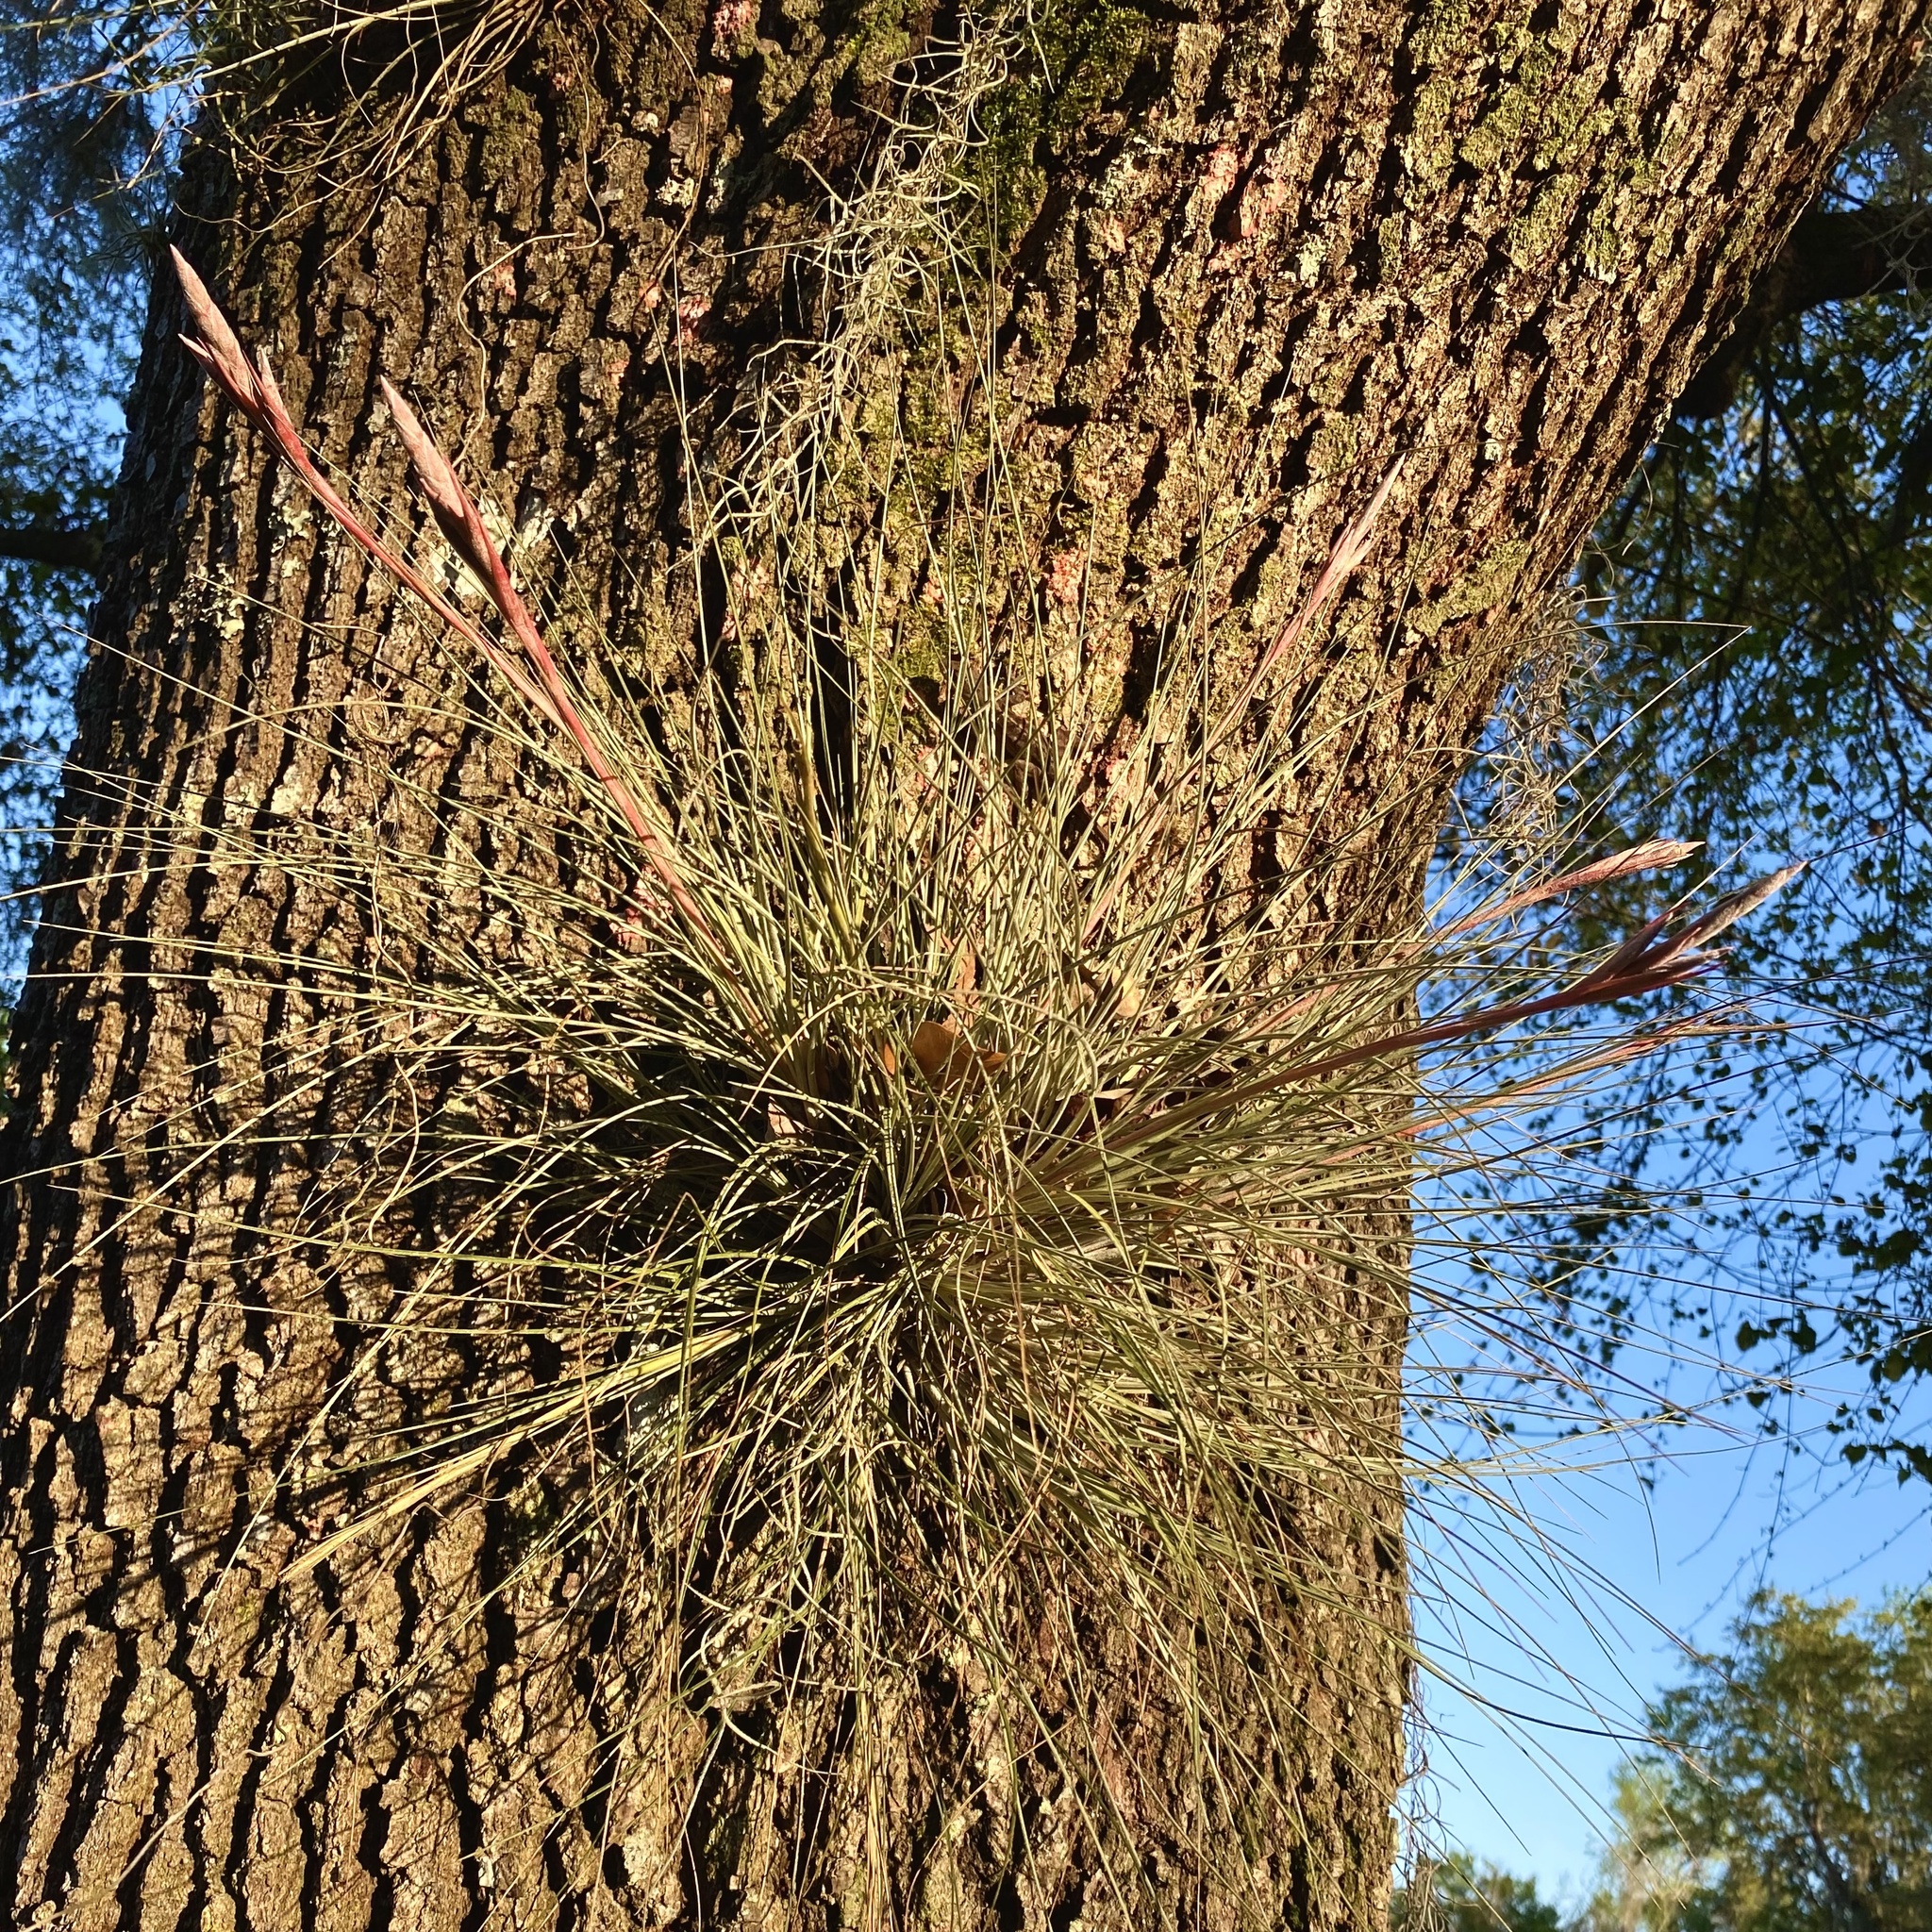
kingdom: Plantae
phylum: Tracheophyta
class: Liliopsida
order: Poales
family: Bromeliaceae
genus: Tillandsia
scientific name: Tillandsia bartramii
